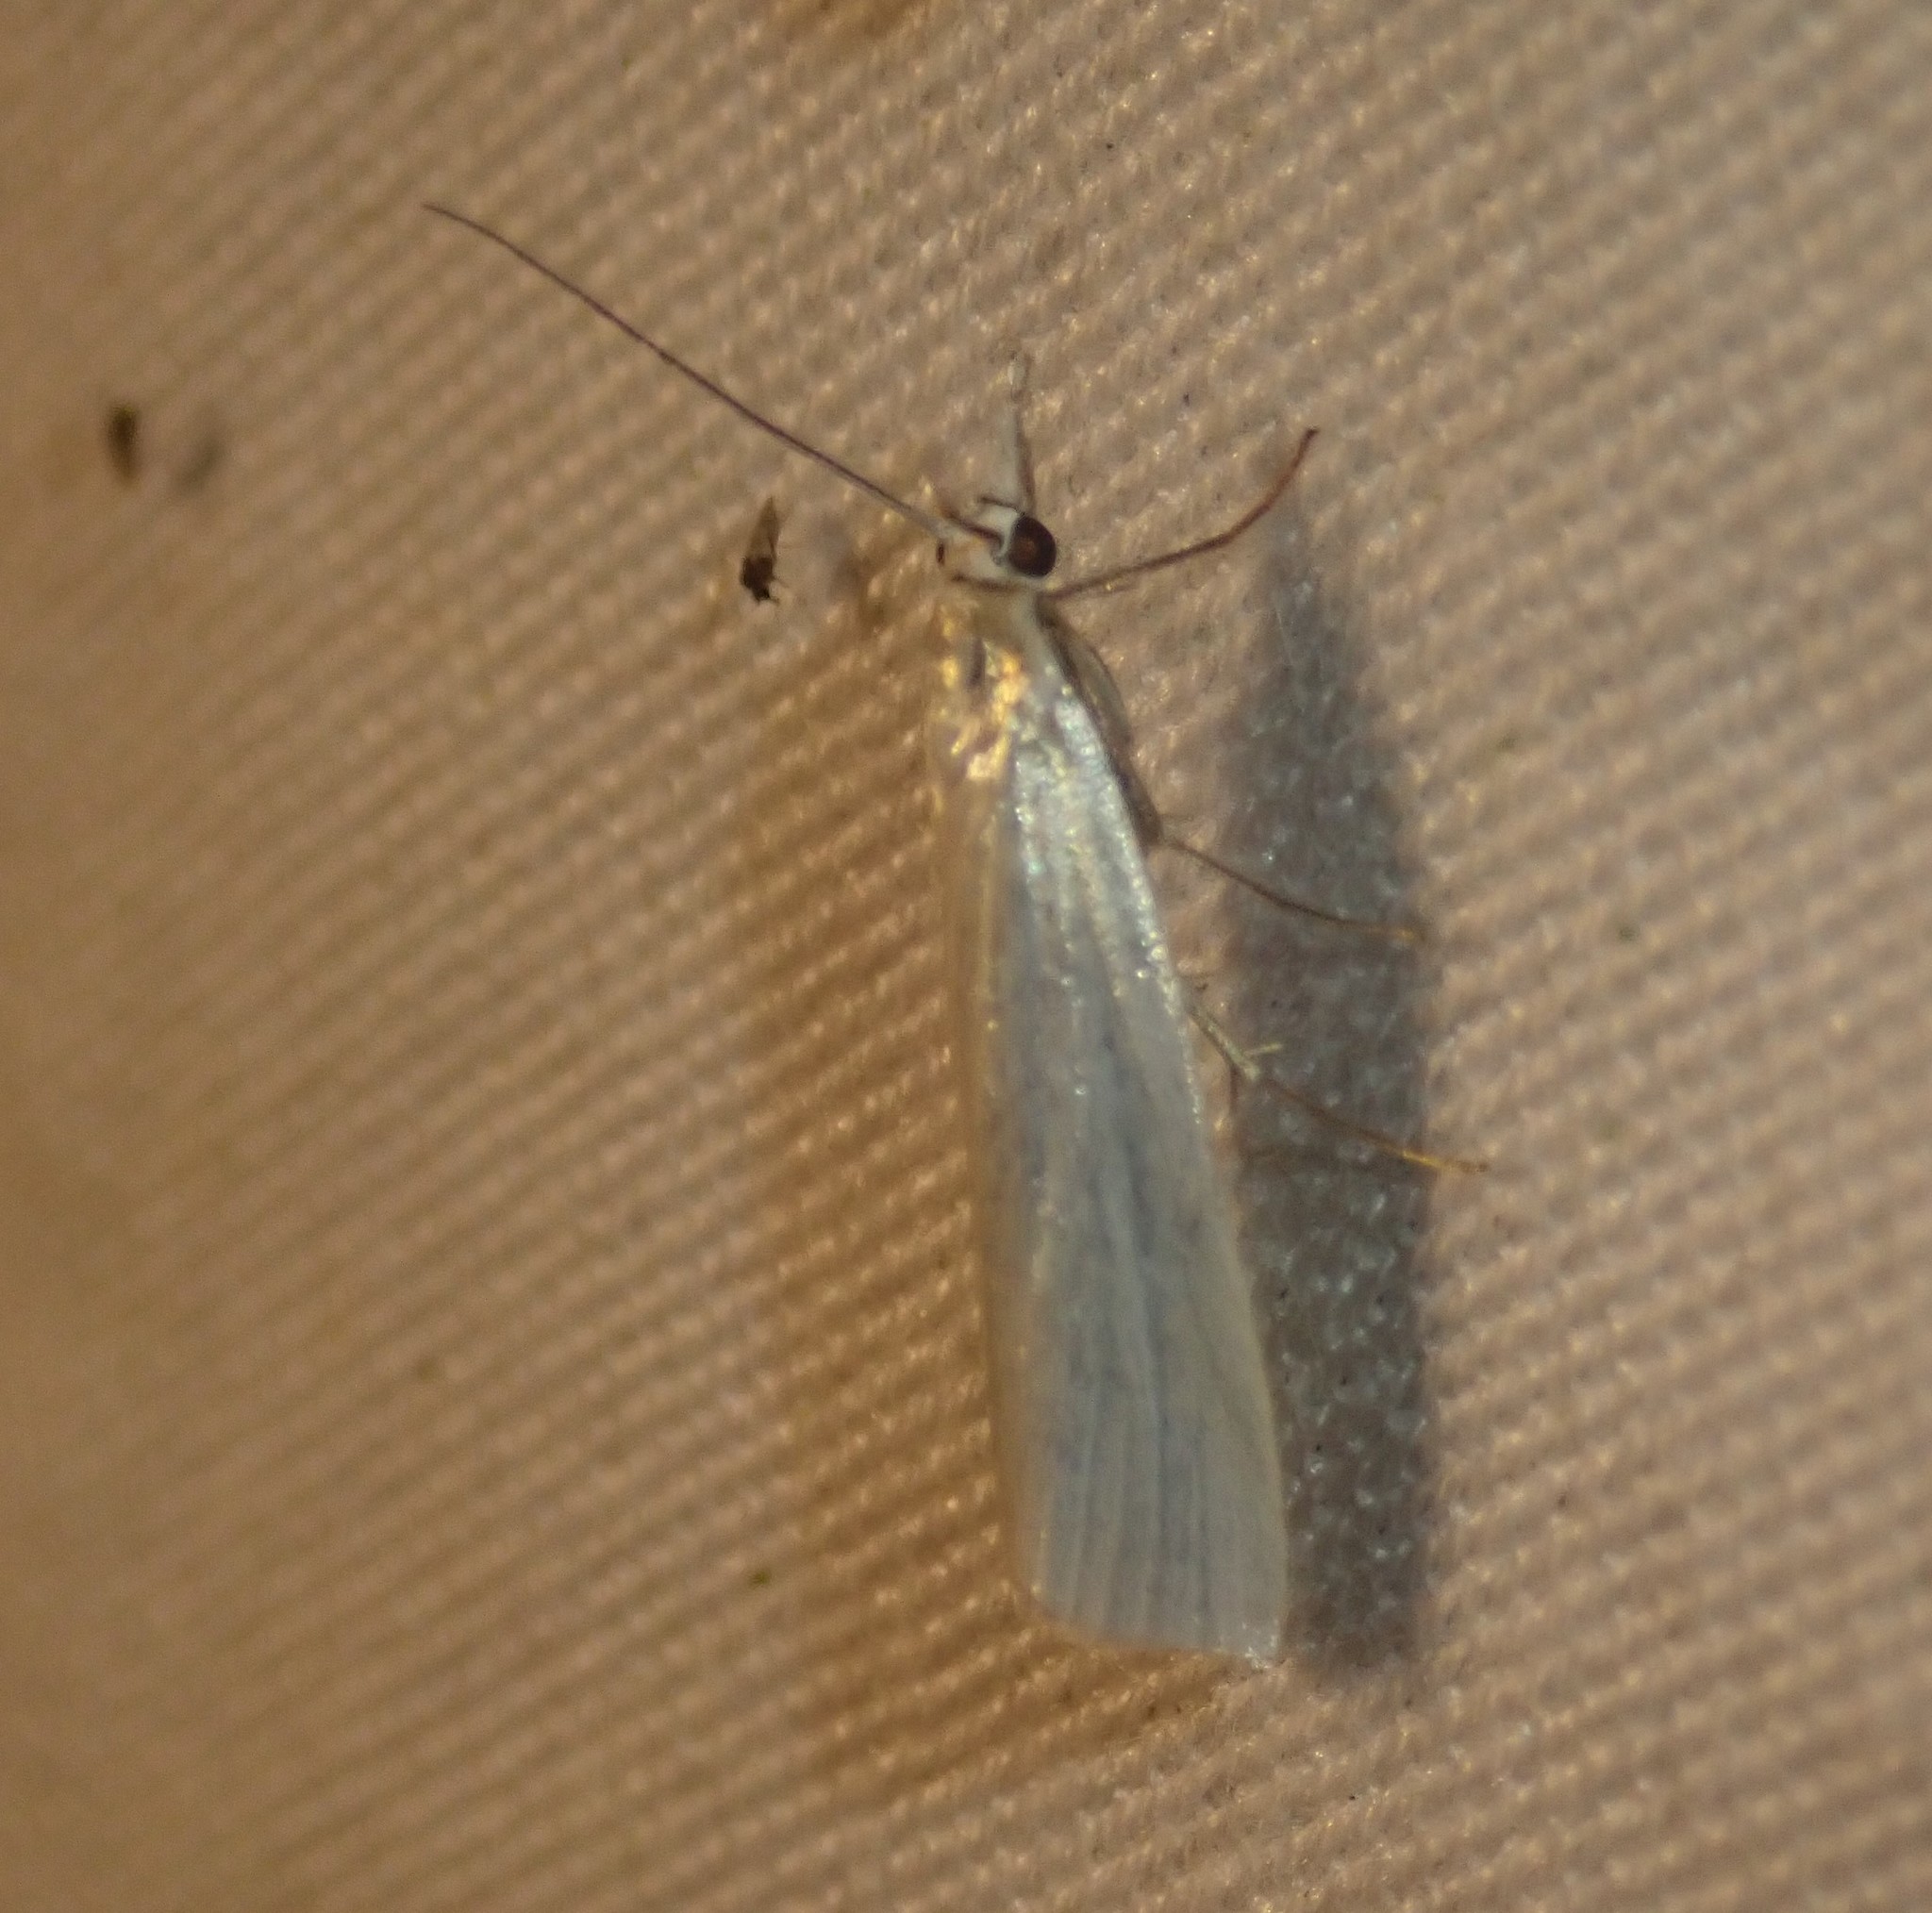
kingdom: Animalia
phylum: Arthropoda
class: Insecta
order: Lepidoptera
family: Crambidae
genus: Crambus
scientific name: Crambus perlellus
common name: Yellow satin veneer
